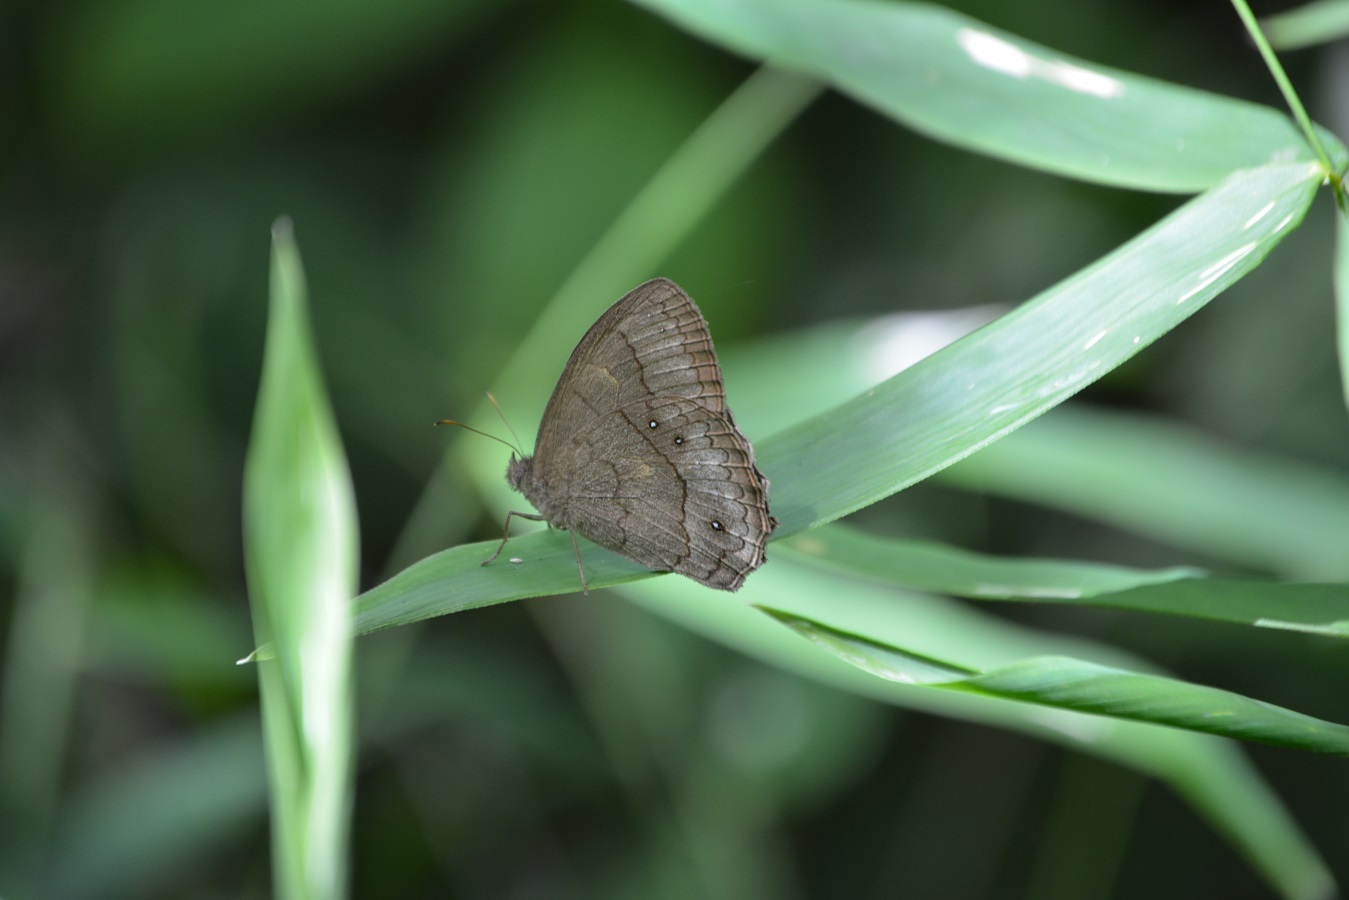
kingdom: Animalia
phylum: Arthropoda
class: Insecta
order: Lepidoptera
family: Nymphalidae
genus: Taygetina
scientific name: Taygetina kerea
